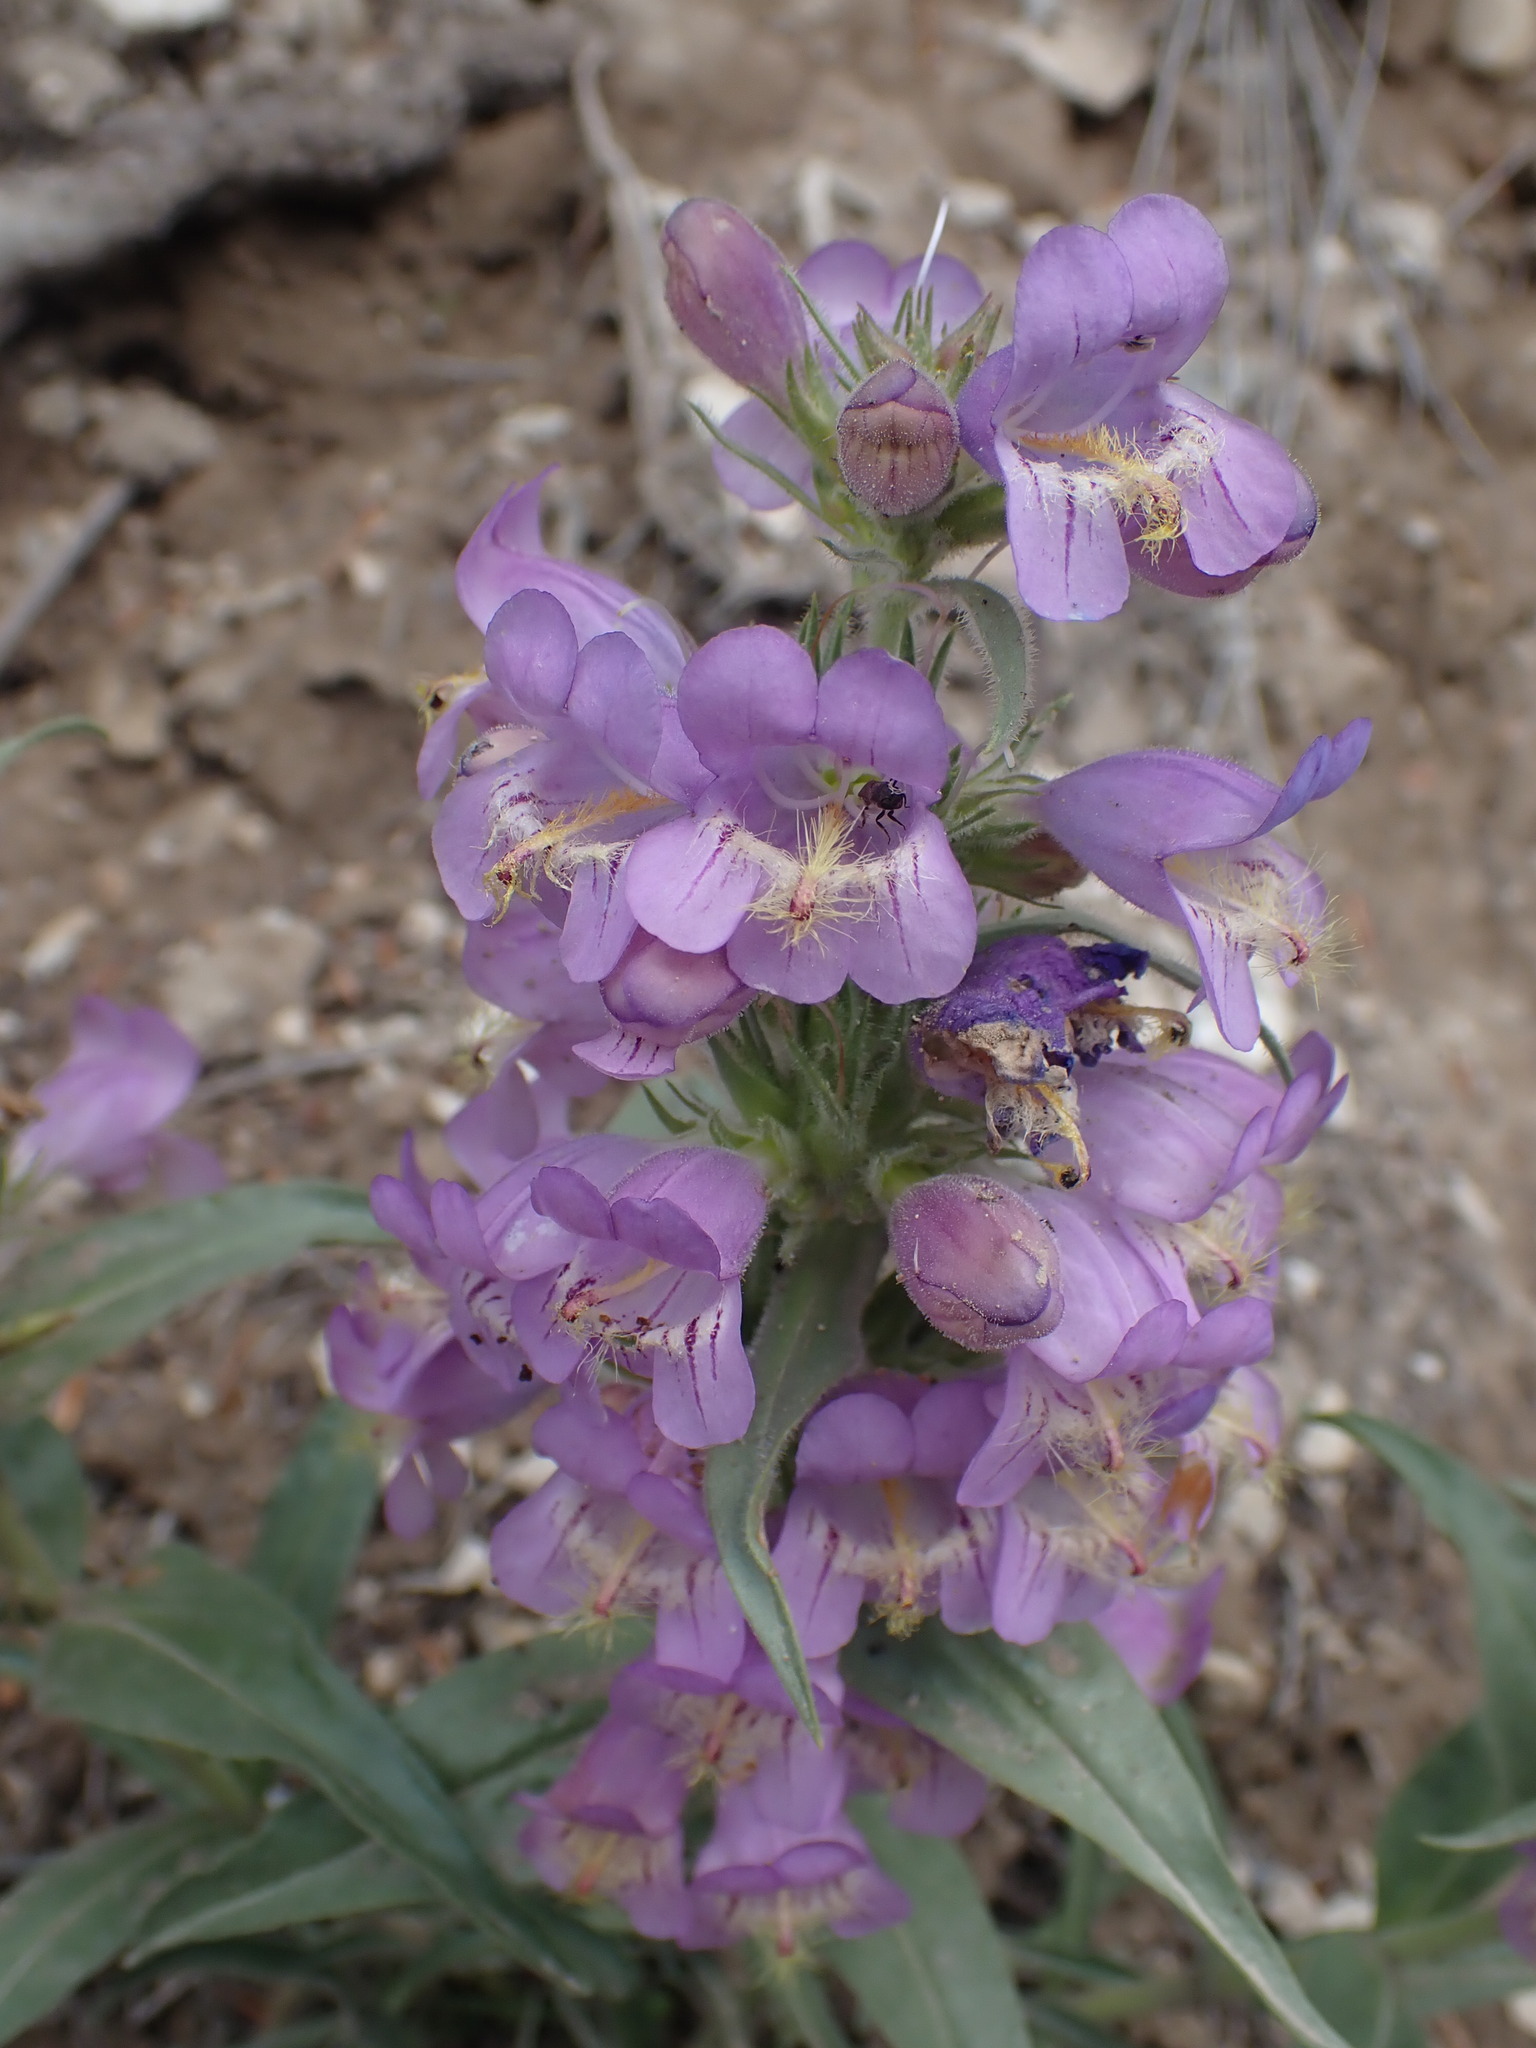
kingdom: Plantae
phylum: Tracheophyta
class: Magnoliopsida
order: Lamiales
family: Plantaginaceae
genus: Penstemon
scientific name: Penstemon eriantherus
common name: Crested beardtongue
